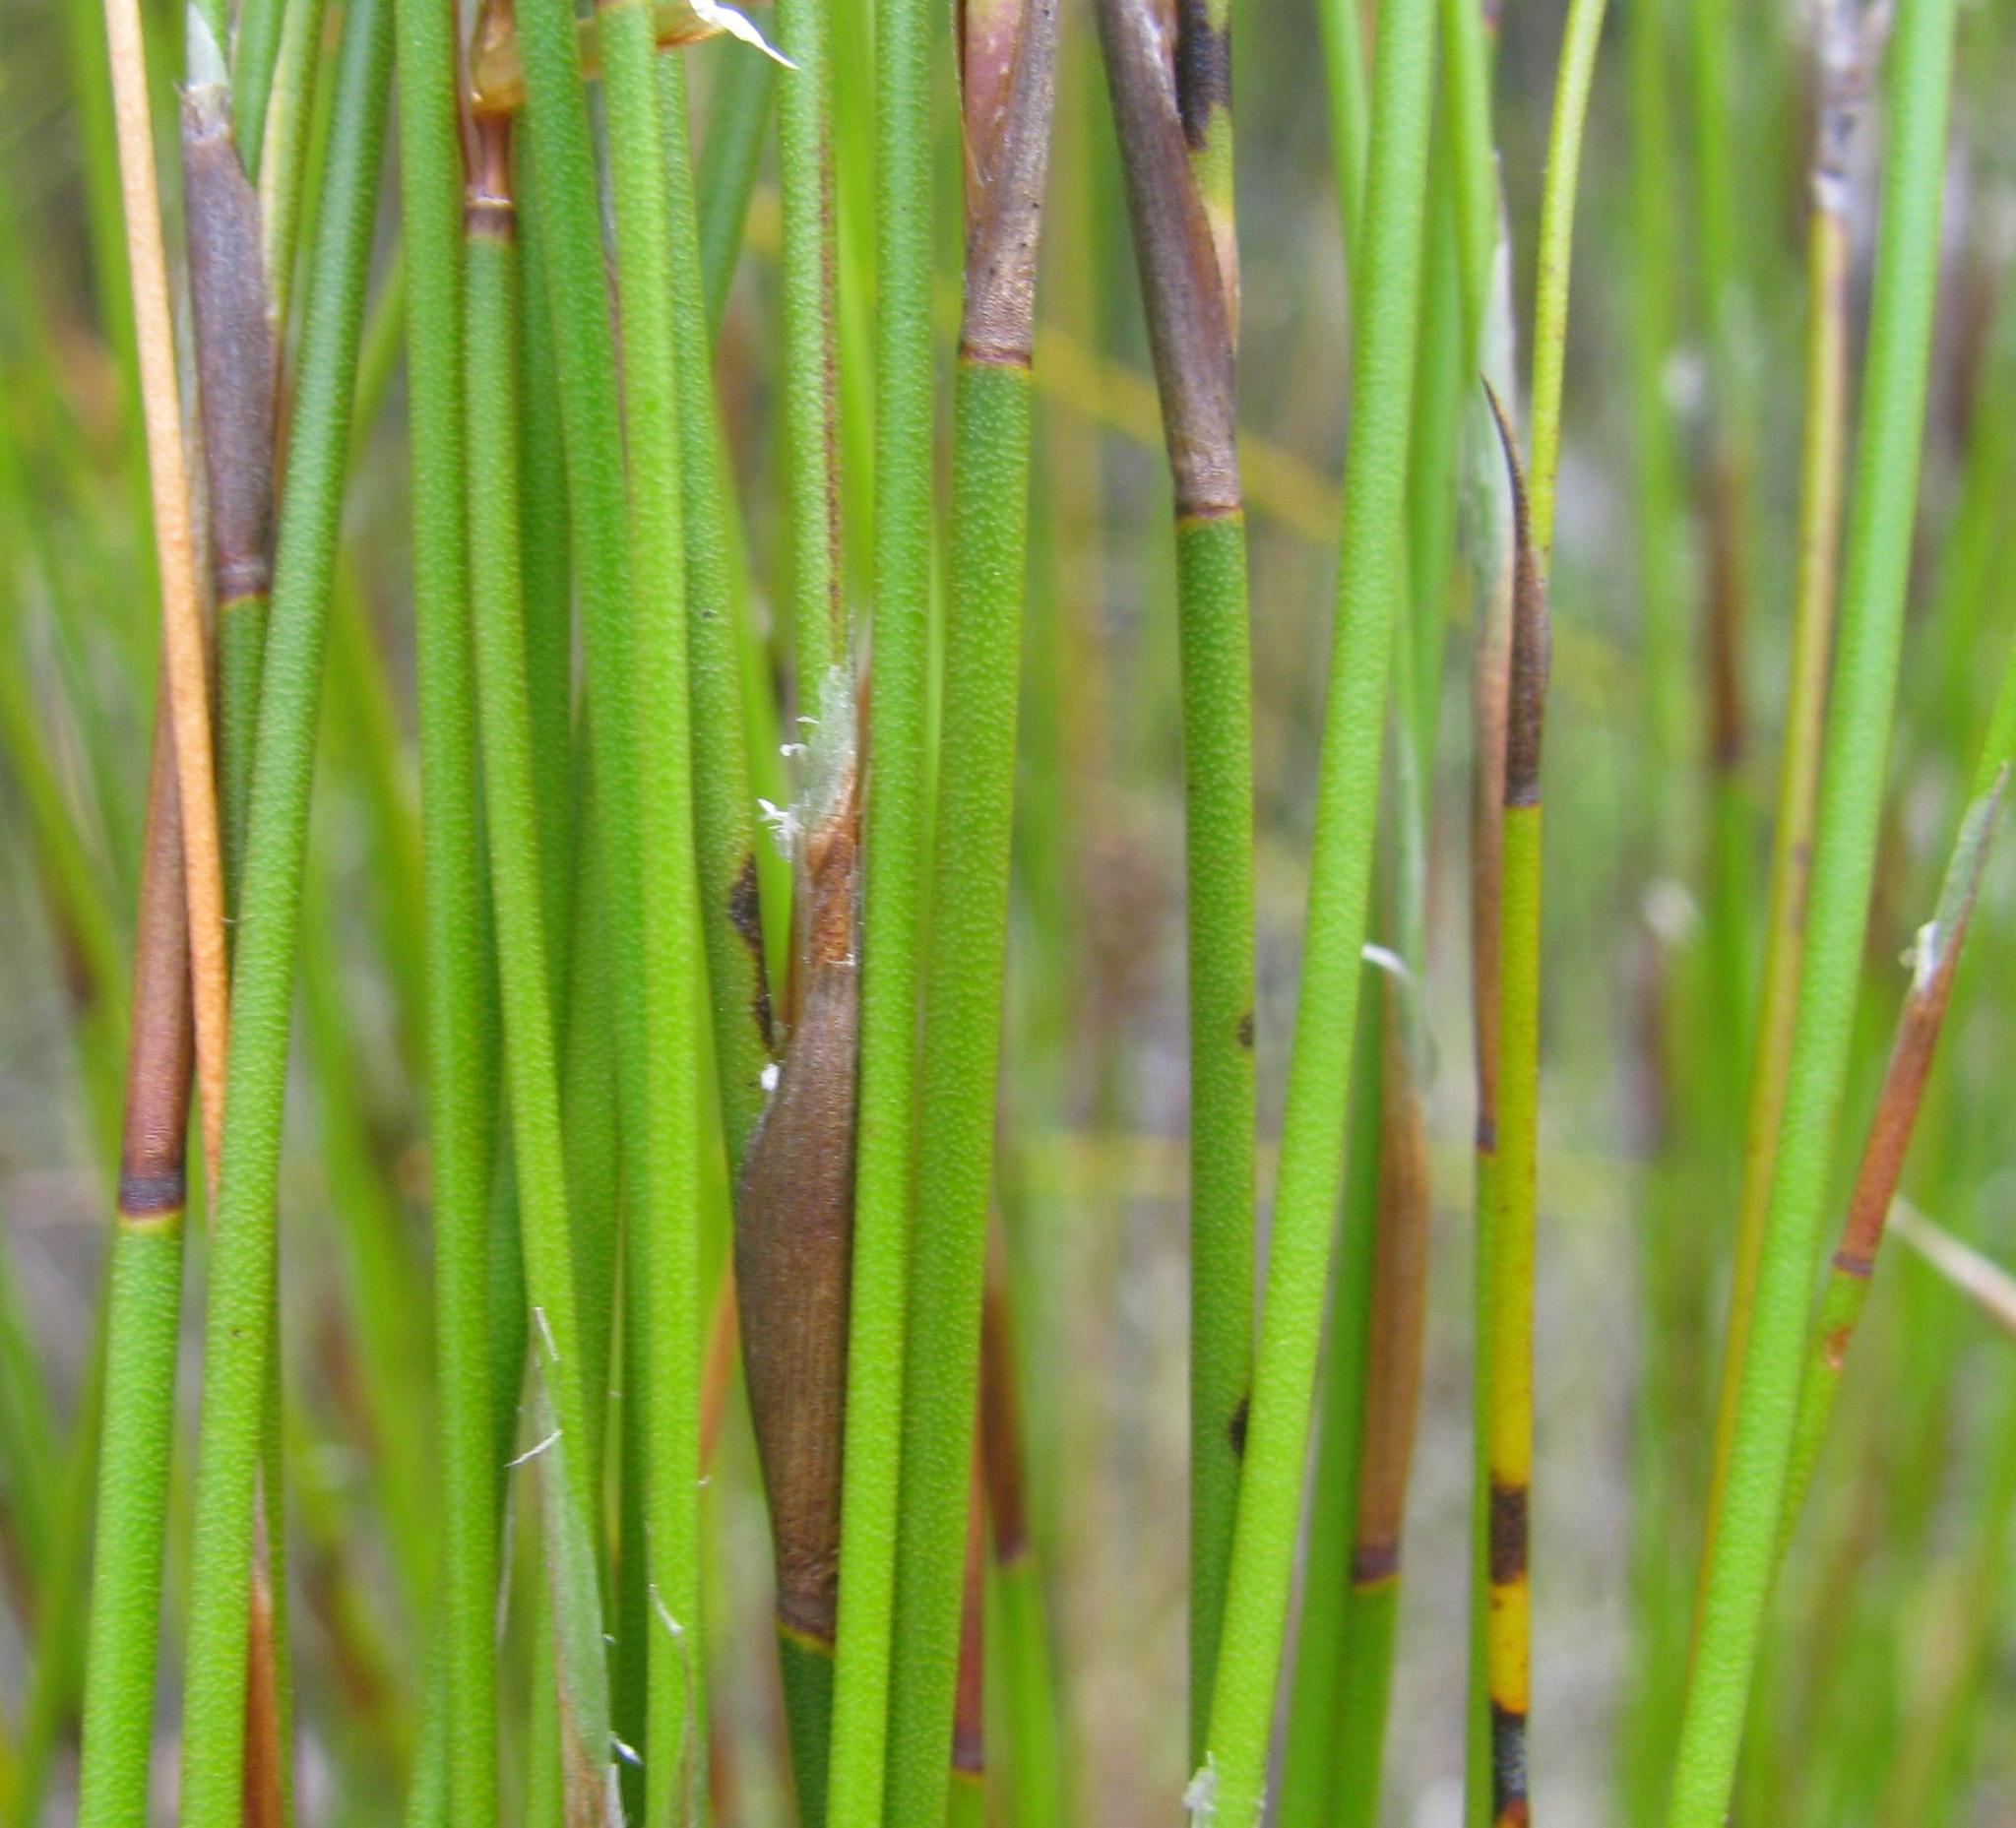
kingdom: Plantae
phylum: Tracheophyta
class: Liliopsida
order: Poales
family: Restionaceae
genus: Restio
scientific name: Restio distichus
